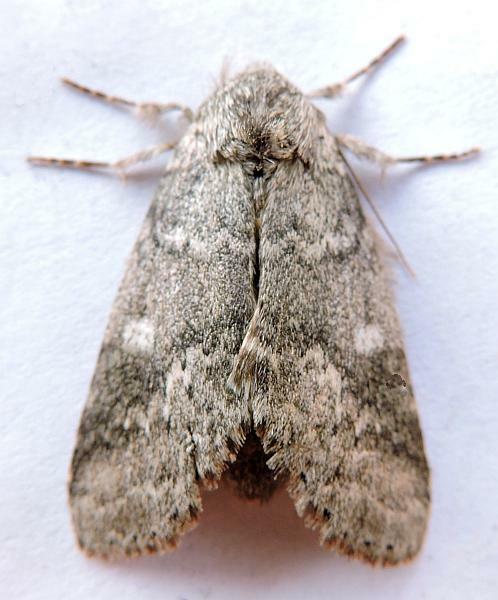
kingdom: Animalia
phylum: Arthropoda
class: Insecta
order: Lepidoptera
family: Notodontidae
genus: Lochmaeus
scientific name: Lochmaeus manteo
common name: Variable oakleaf caterpillar moth
